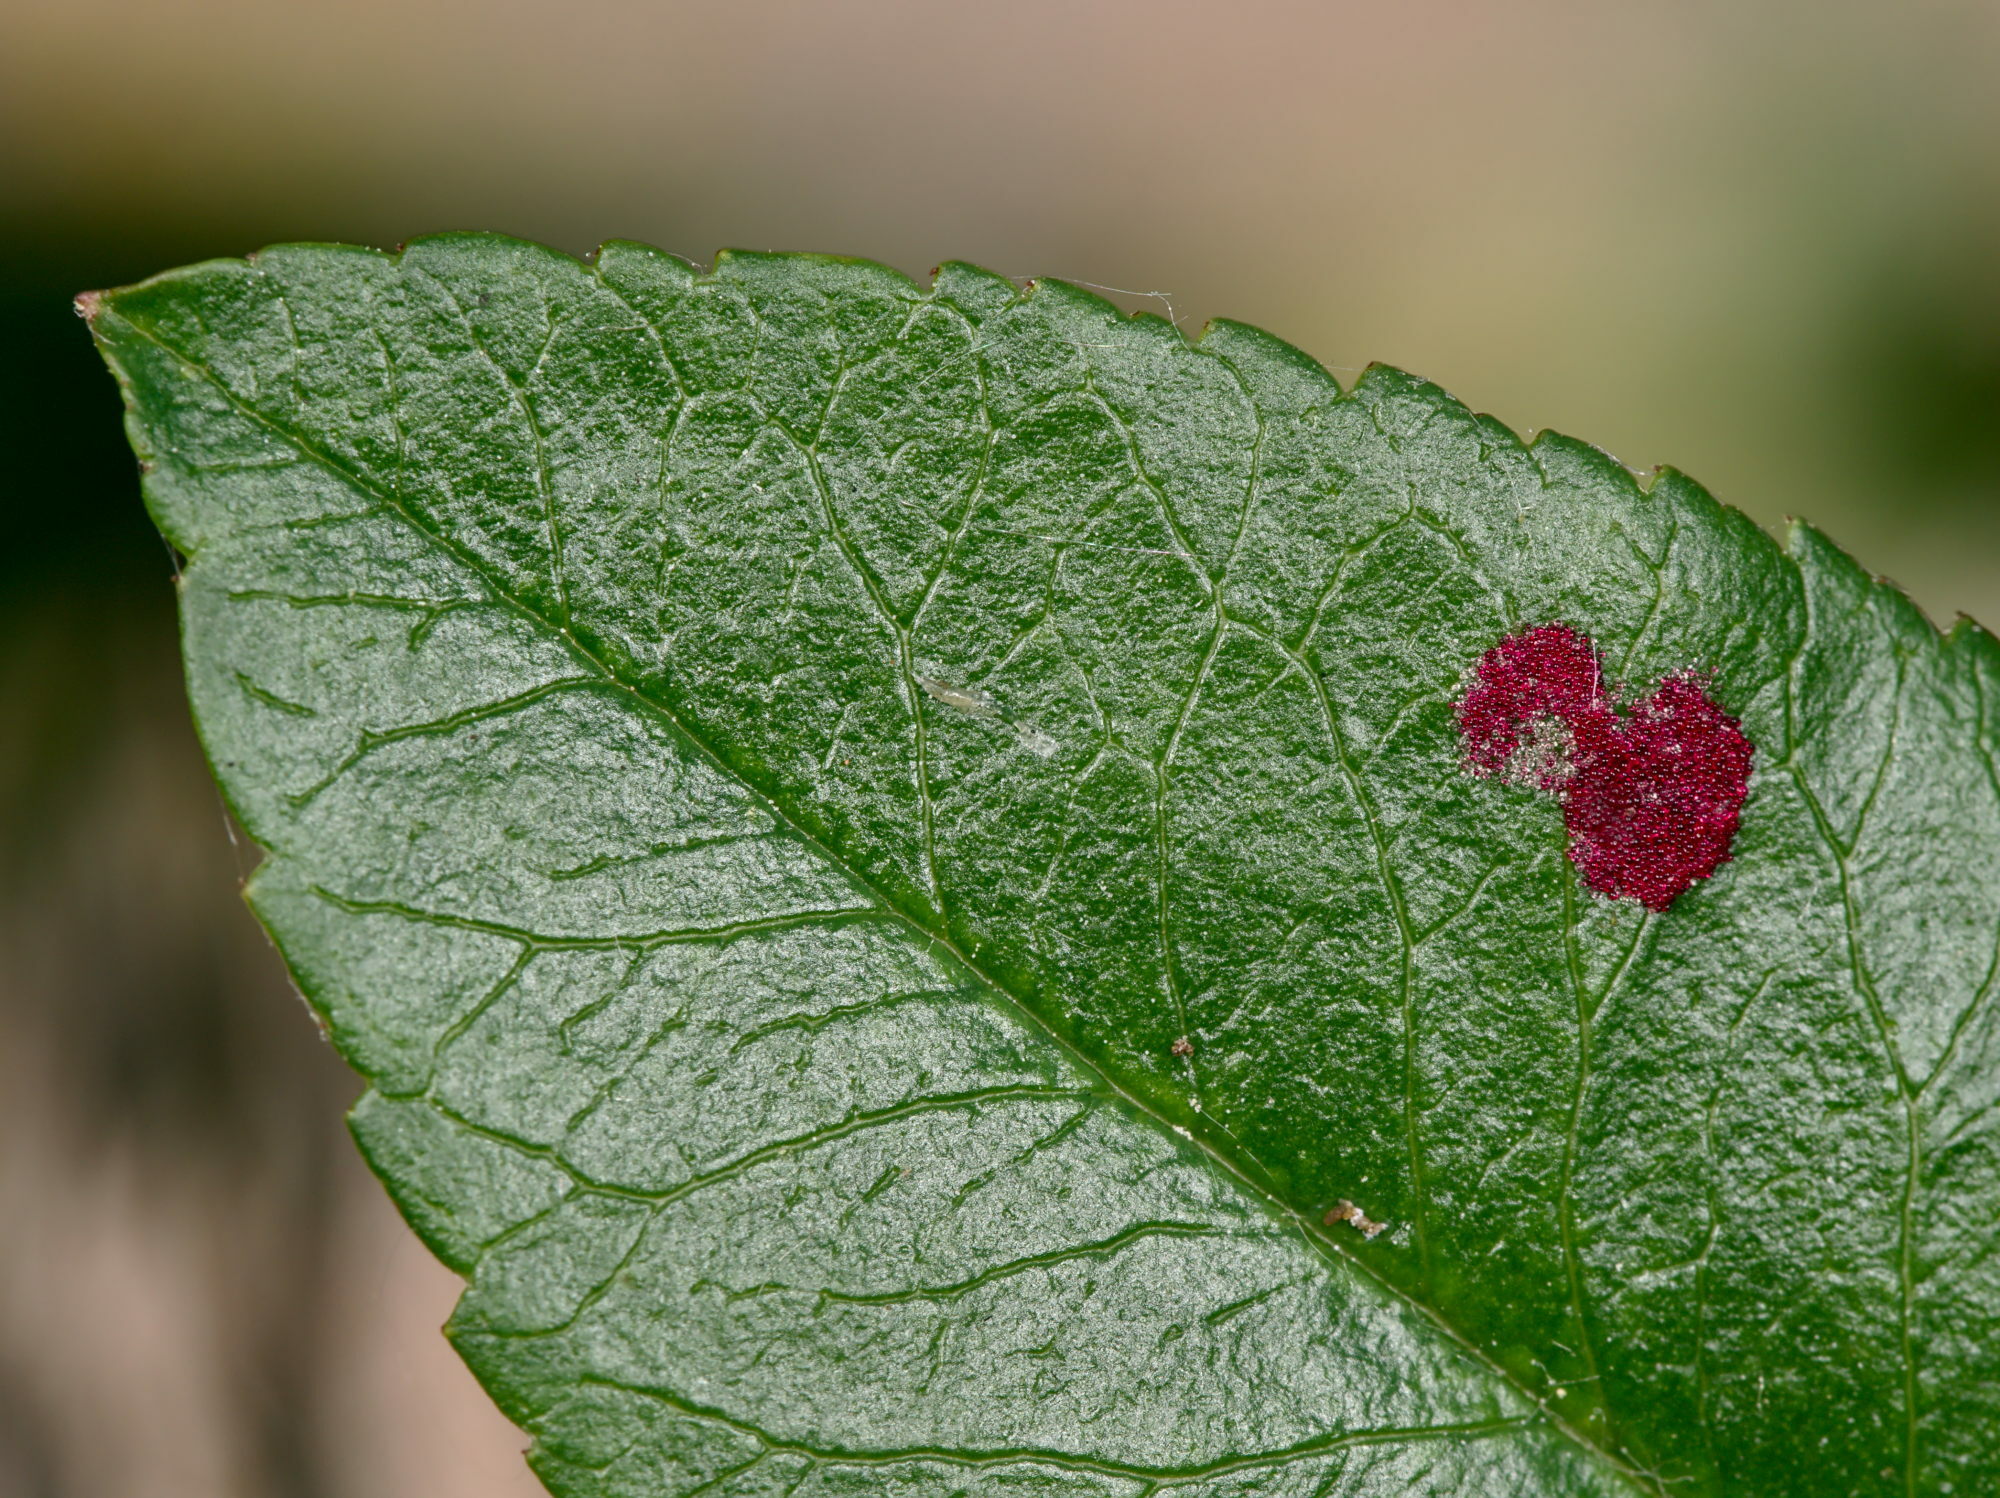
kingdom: Animalia
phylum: Arthropoda
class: Arachnida
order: Trombidiformes
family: Eriophyidae
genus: Aceria
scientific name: Aceria pyracanthi
